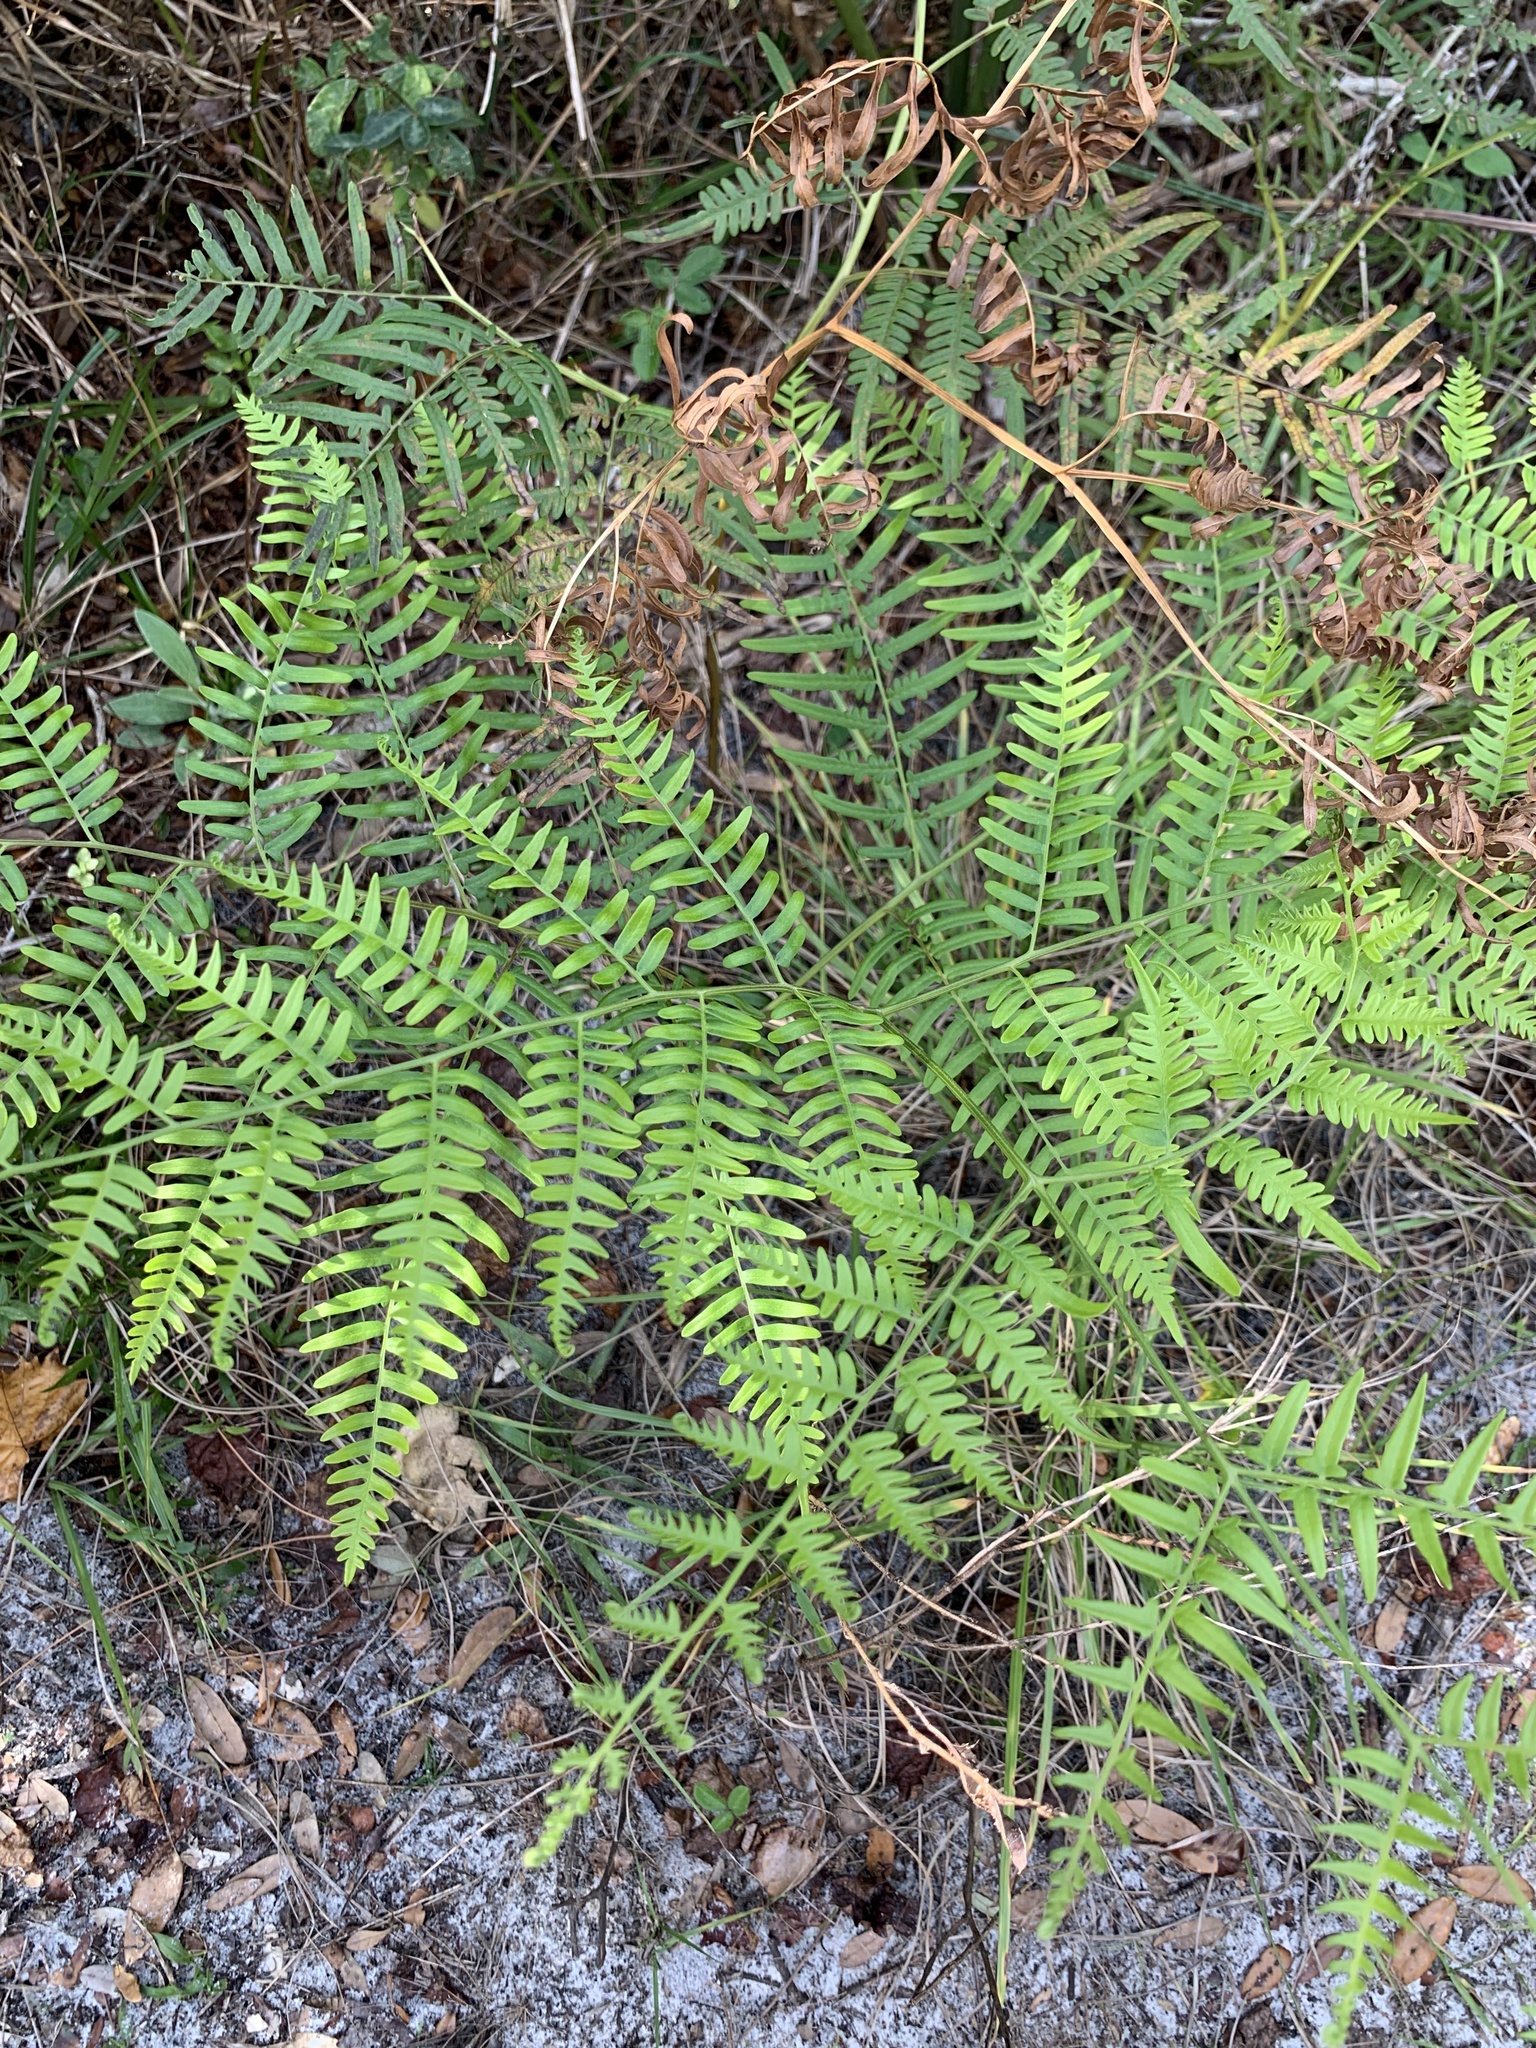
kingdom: Plantae
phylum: Tracheophyta
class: Polypodiopsida
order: Polypodiales
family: Dennstaedtiaceae
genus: Pteridium
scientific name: Pteridium
